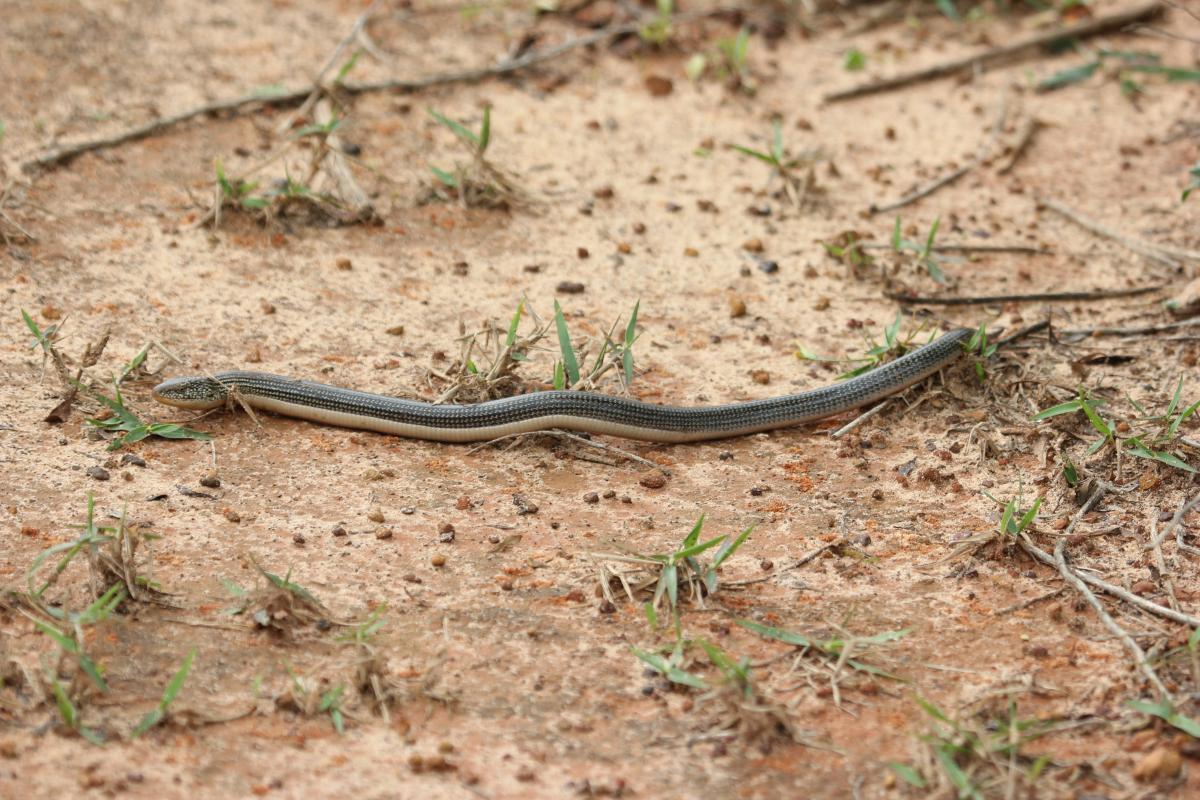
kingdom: Animalia
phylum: Chordata
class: Squamata
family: Anguidae
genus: Ophisaurus
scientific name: Ophisaurus ventralis
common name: Eastern glass lizard
